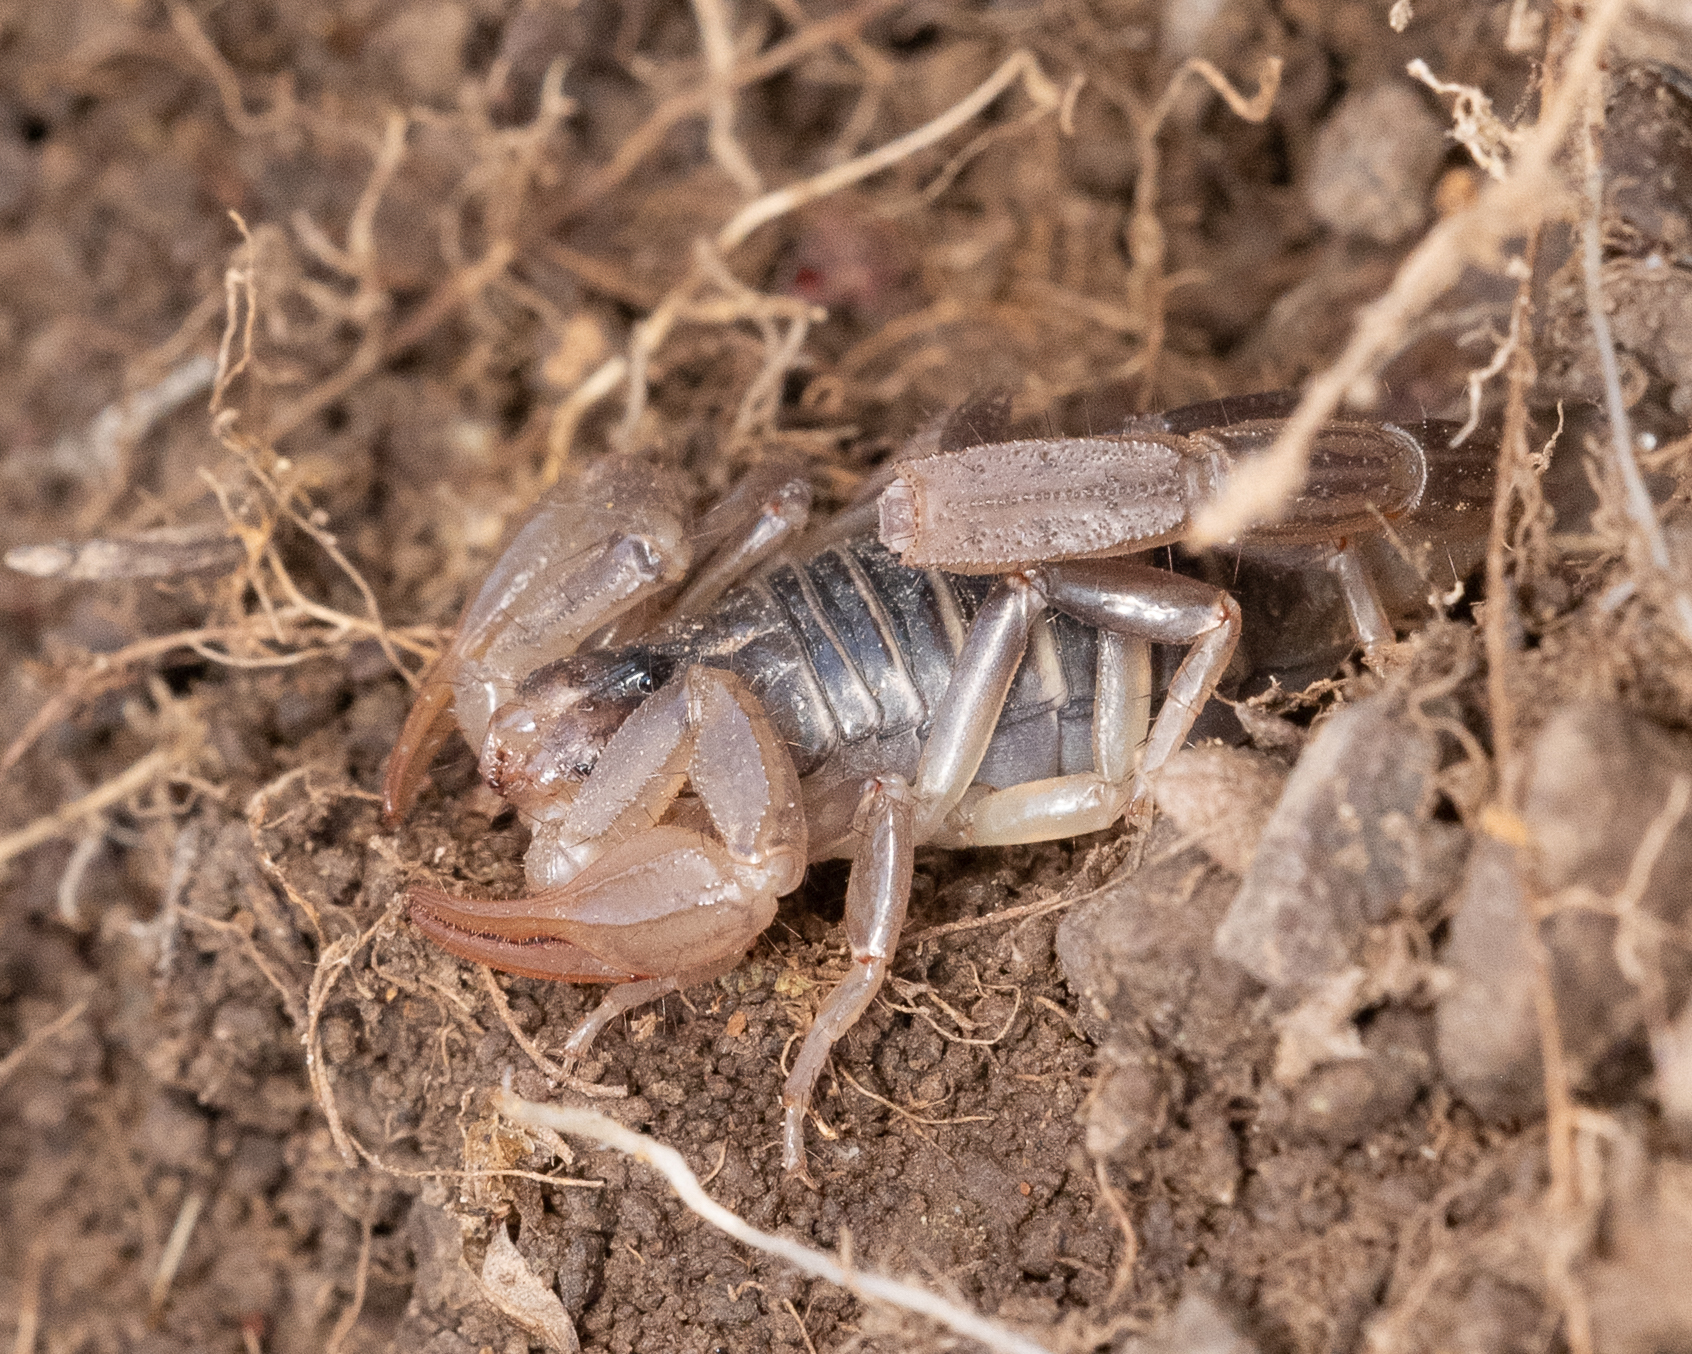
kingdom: Animalia
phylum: Arthropoda
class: Arachnida
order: Scorpiones
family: Vaejovidae
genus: Paruroctonus
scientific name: Paruroctonus boreus
